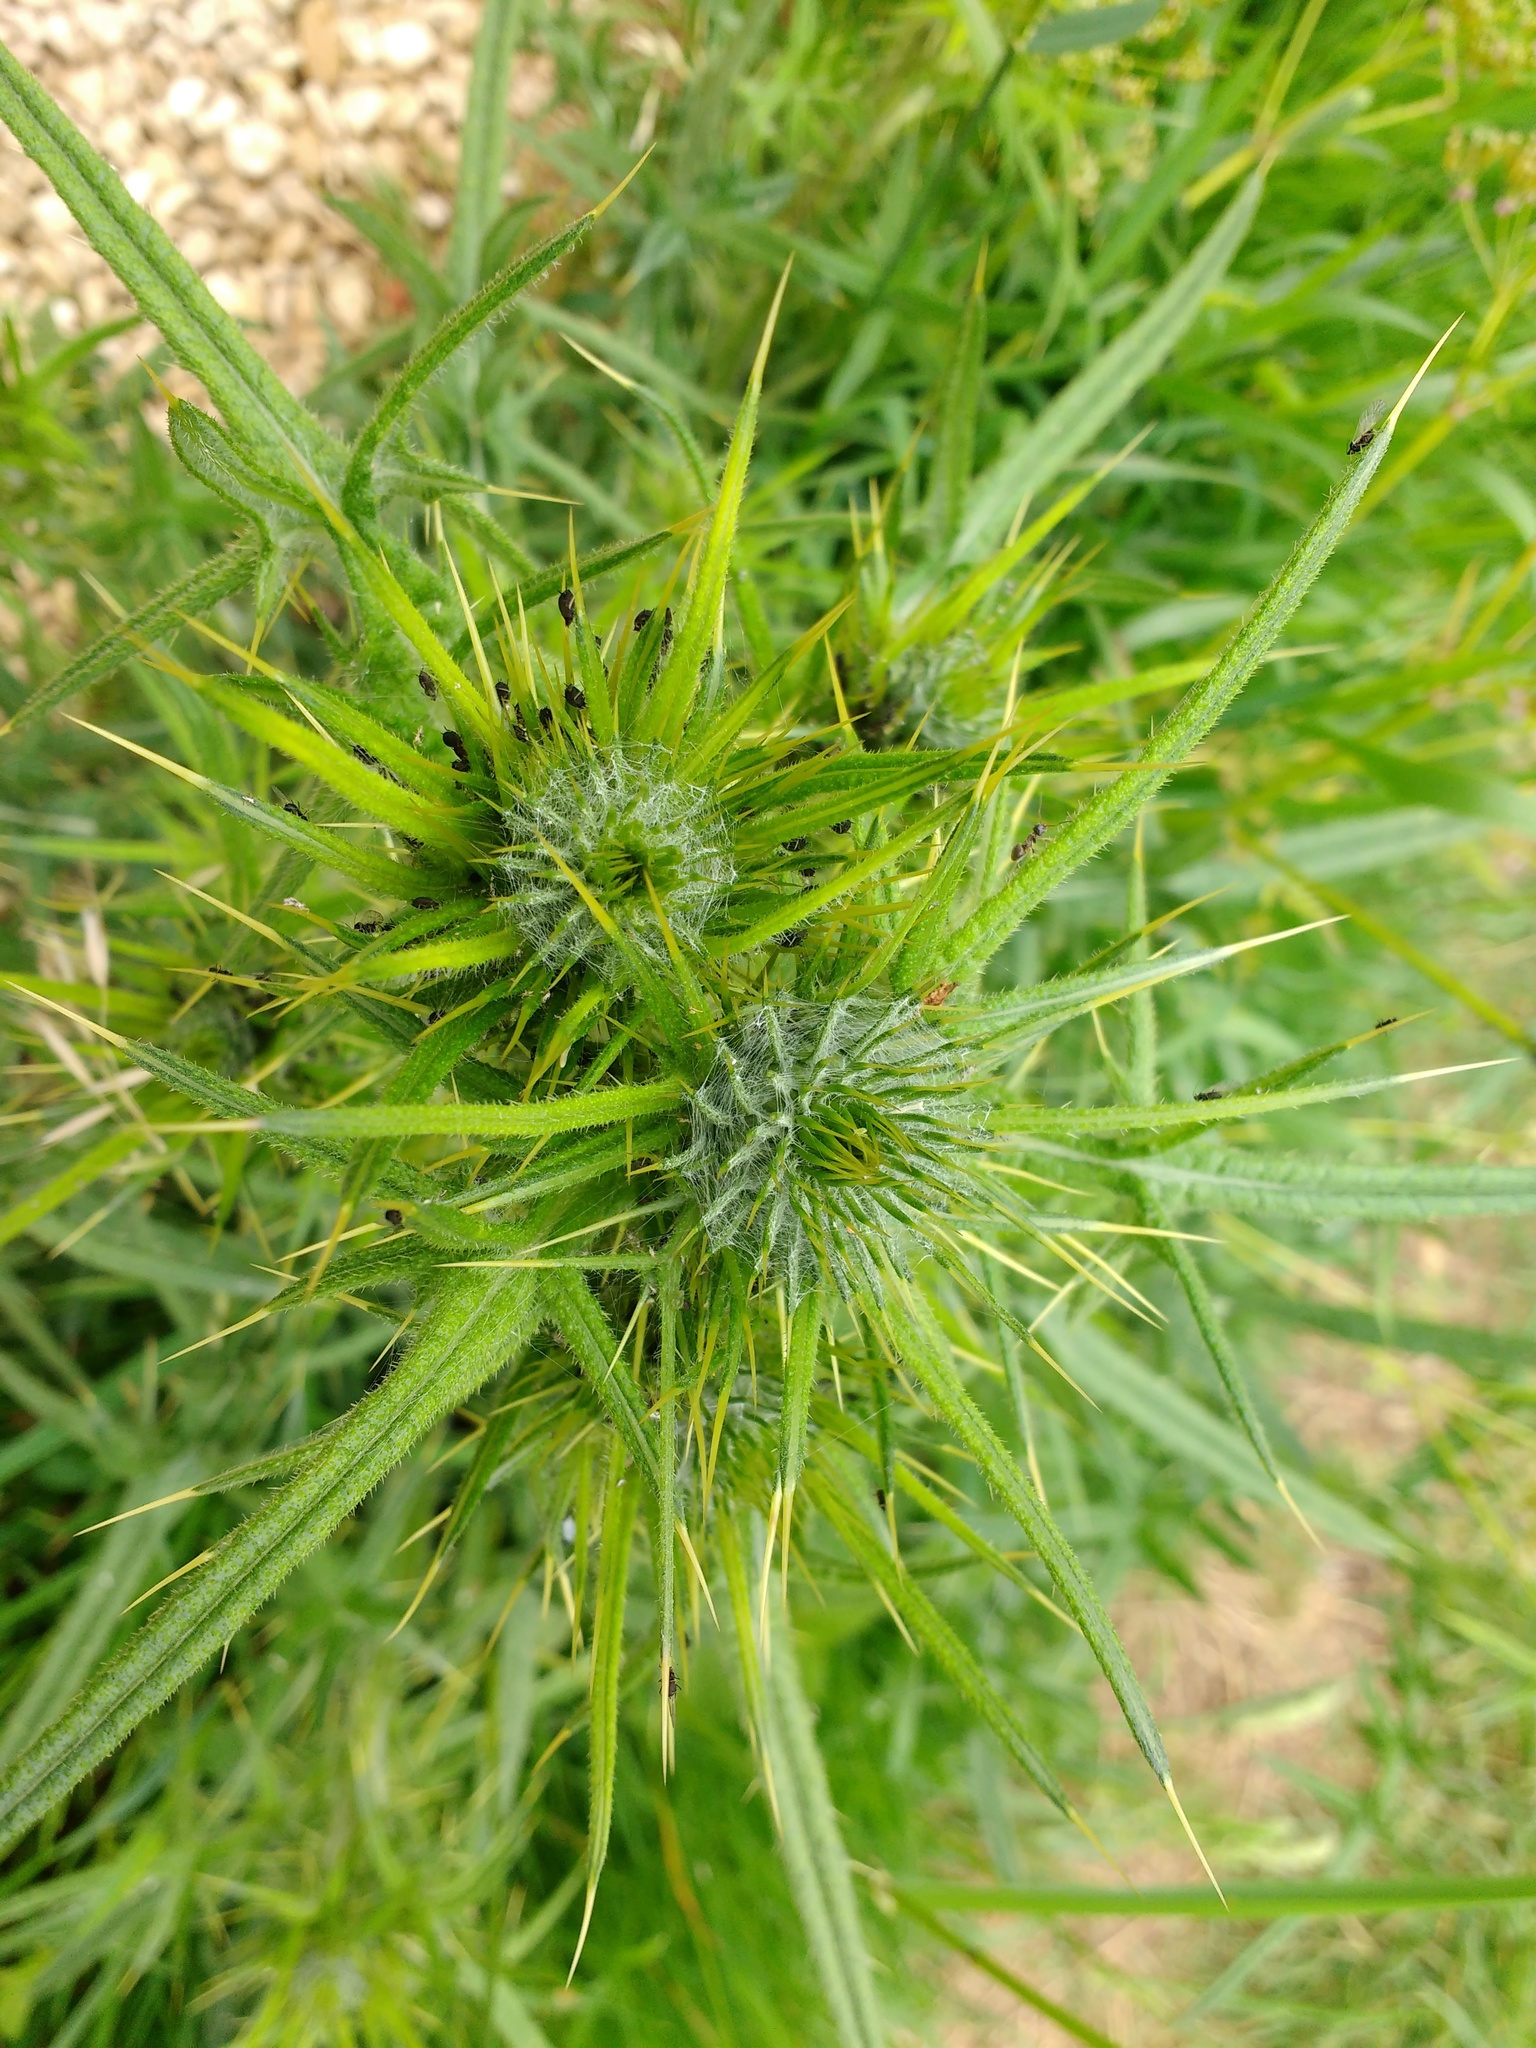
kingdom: Plantae
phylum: Tracheophyta
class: Magnoliopsida
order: Asterales
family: Asteraceae
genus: Cirsium
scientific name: Cirsium vulgare
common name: Bull thistle
